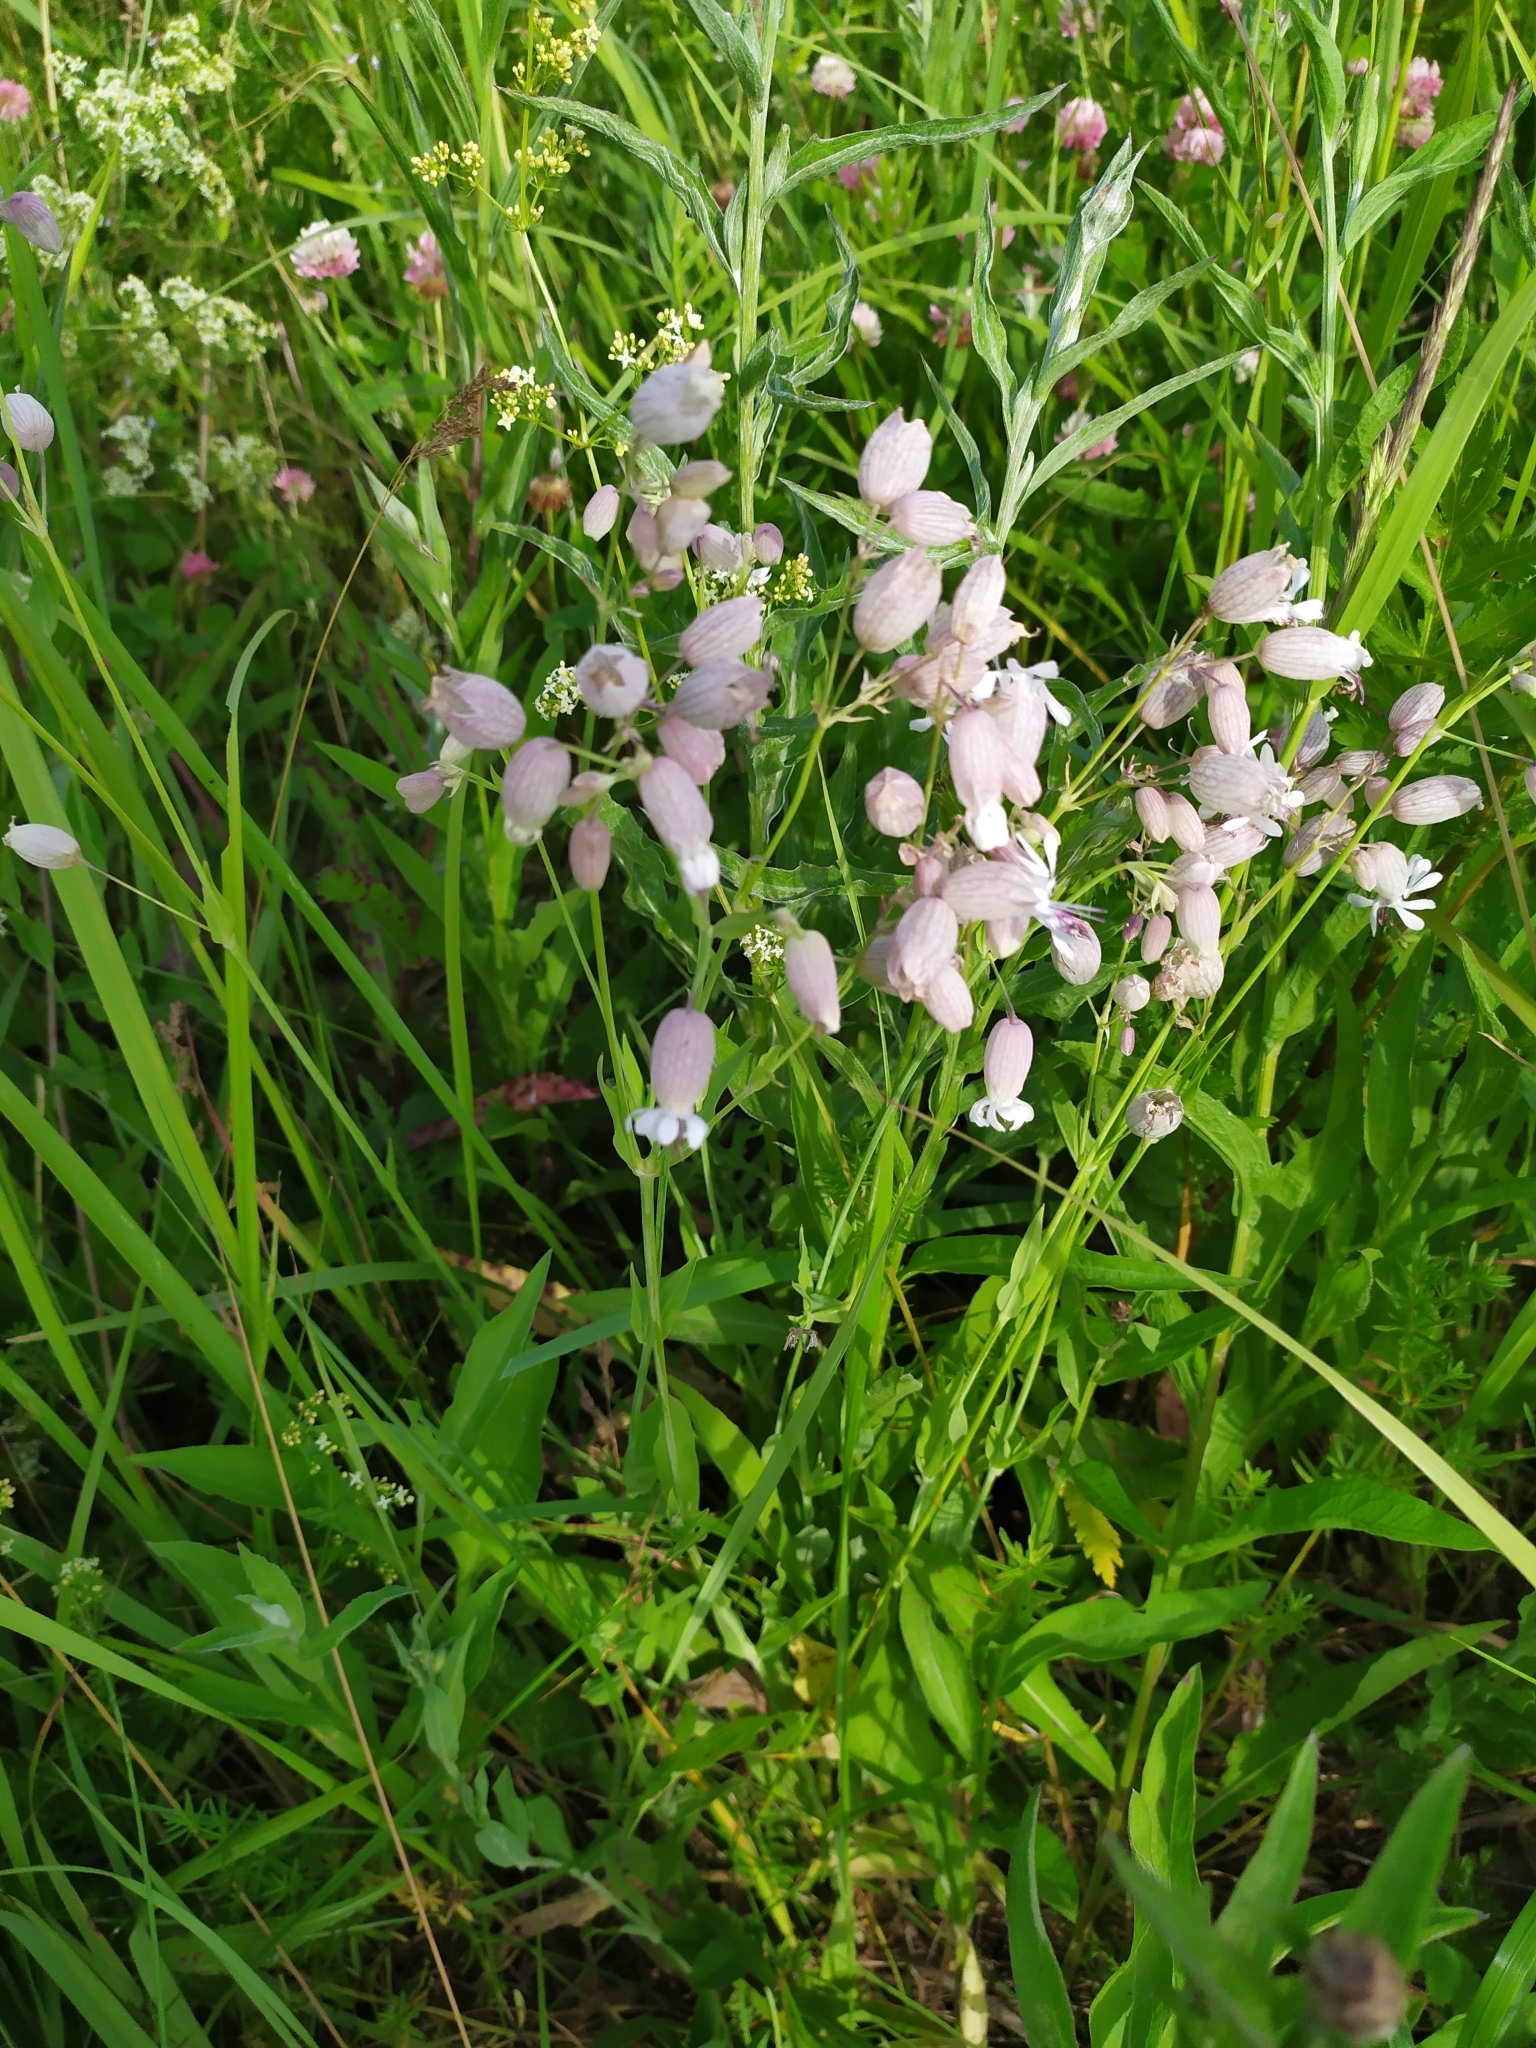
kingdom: Plantae
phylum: Tracheophyta
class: Magnoliopsida
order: Caryophyllales
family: Caryophyllaceae
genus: Silene
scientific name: Silene vulgaris
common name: Bladder campion
